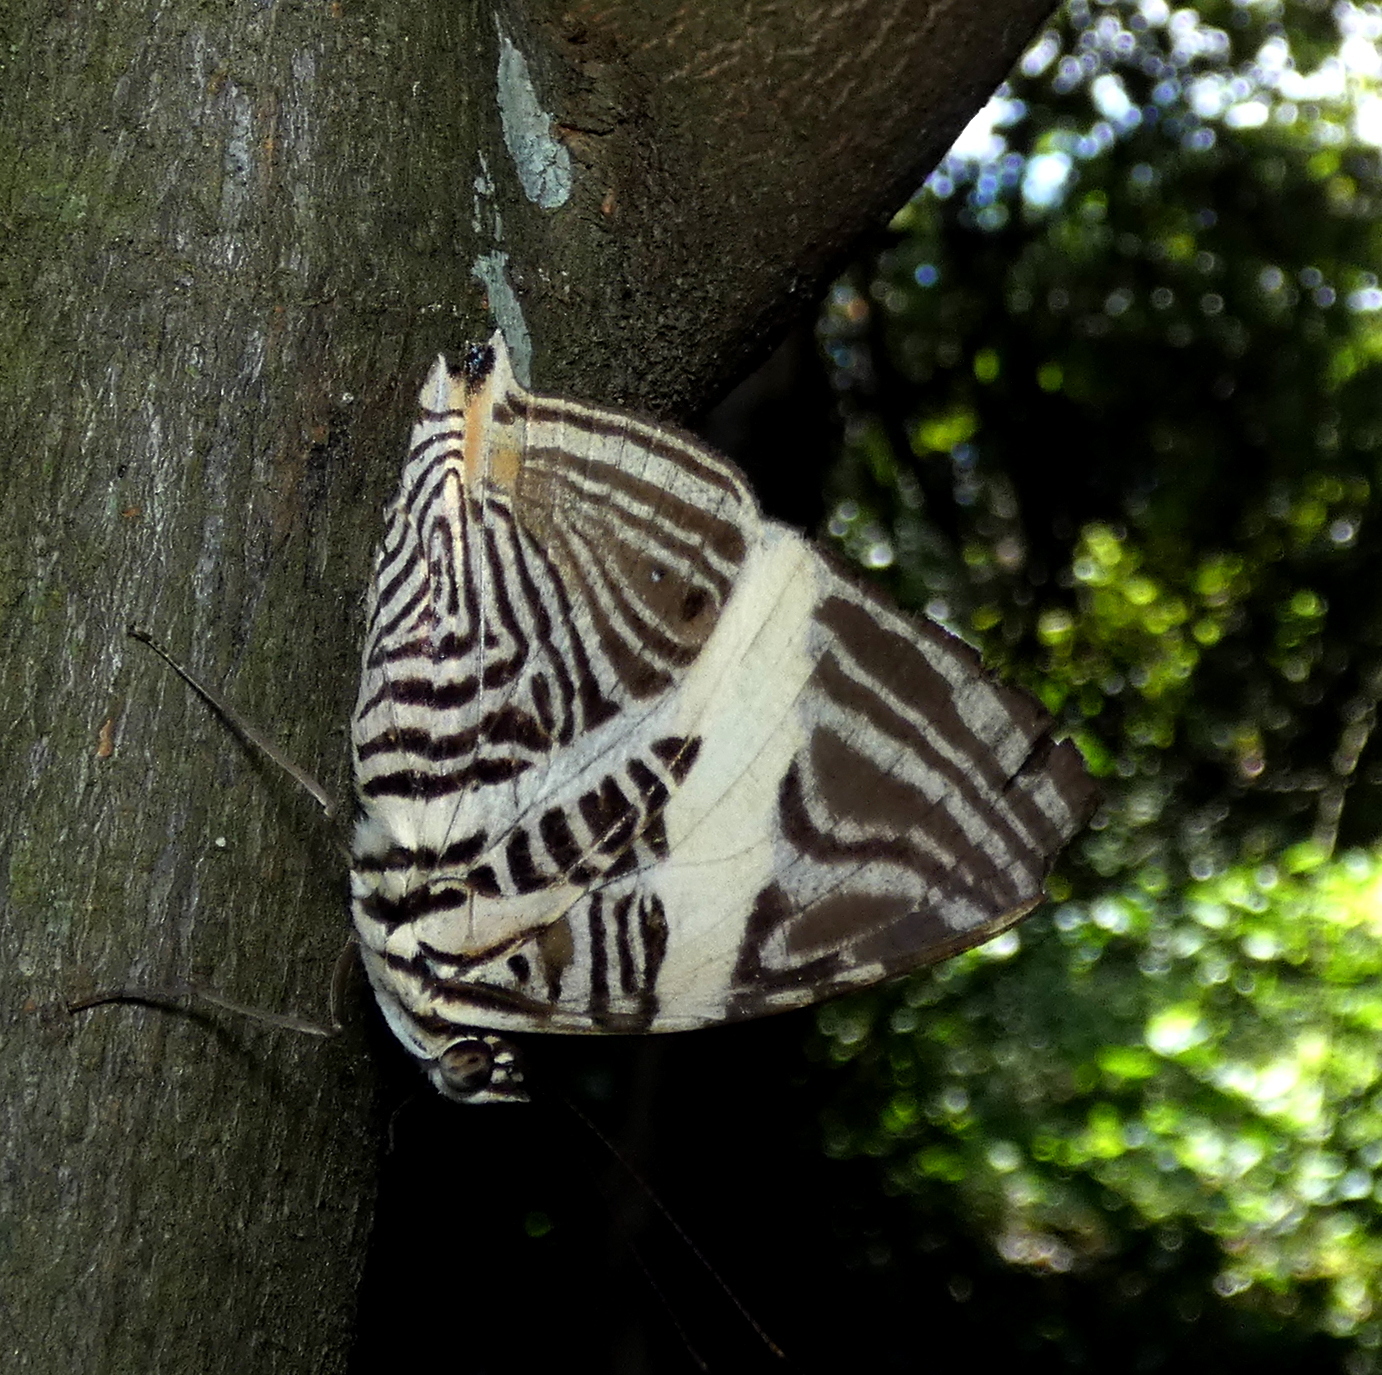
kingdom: Animalia
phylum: Arthropoda
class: Insecta
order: Lepidoptera
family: Nymphalidae
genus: Colobura
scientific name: Colobura dirce
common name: Dirce beauty
